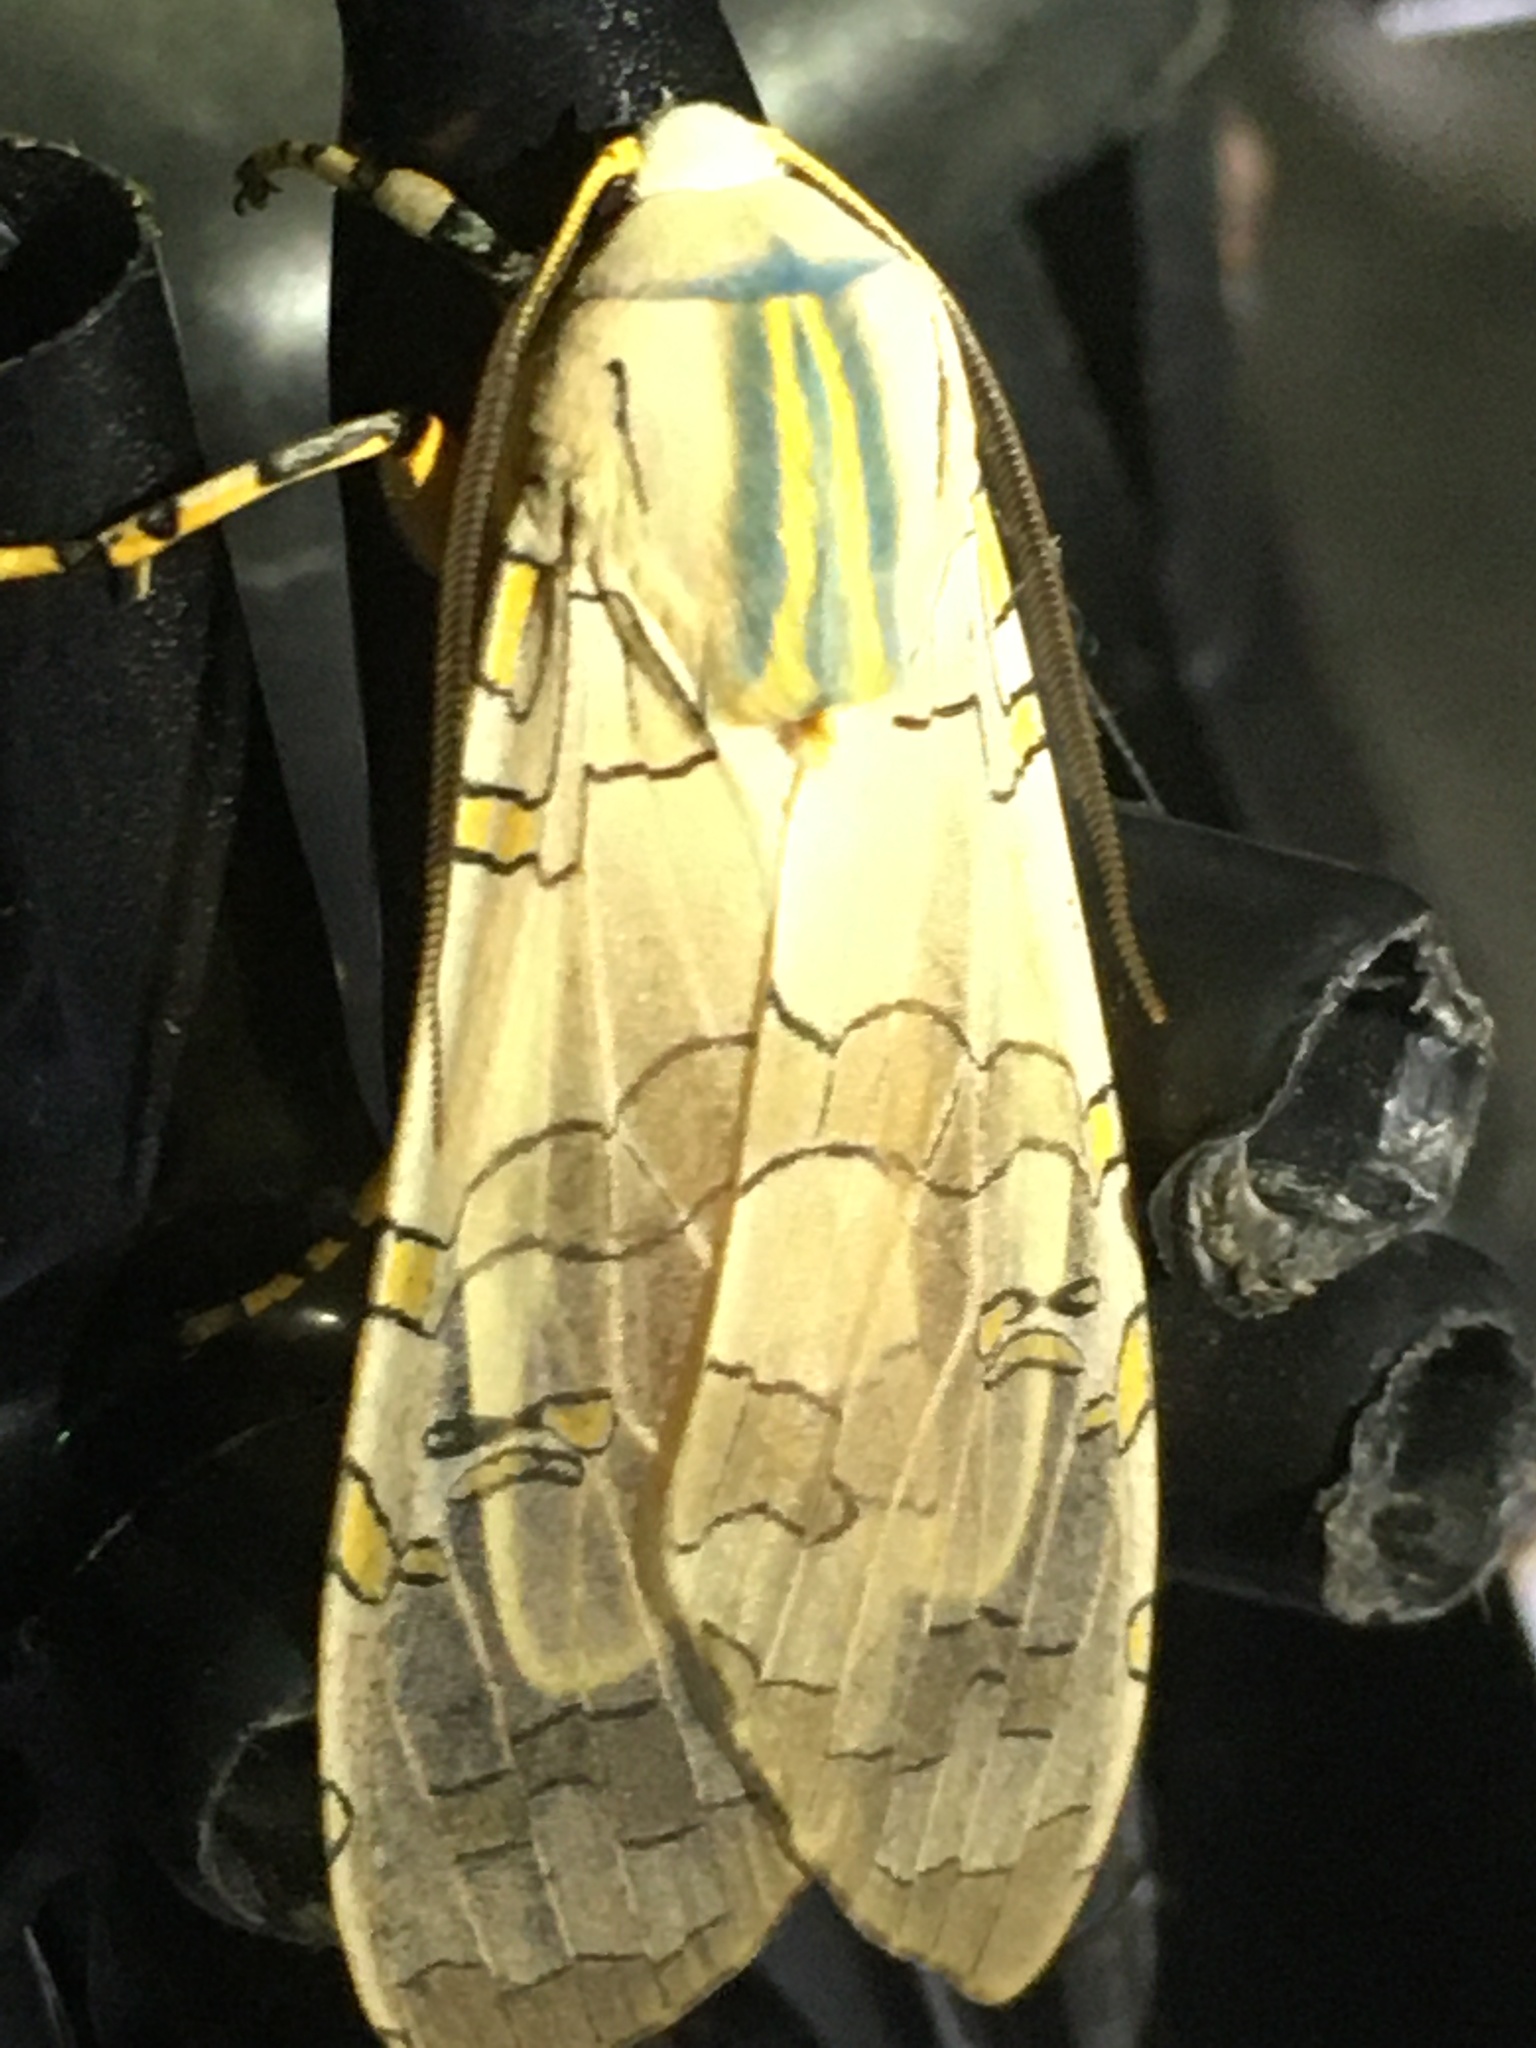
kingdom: Animalia
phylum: Arthropoda
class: Insecta
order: Lepidoptera
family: Erebidae
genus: Halysidota
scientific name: Halysidota schausi
